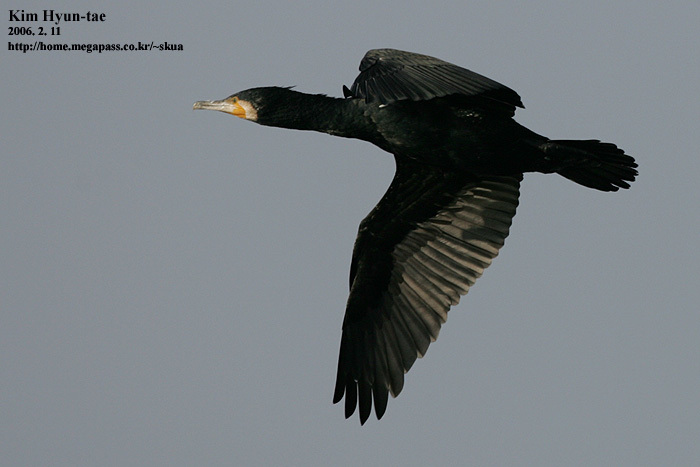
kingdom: Animalia
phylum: Chordata
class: Aves
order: Suliformes
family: Phalacrocoracidae
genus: Phalacrocorax
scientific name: Phalacrocorax carbo
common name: Great cormorant
